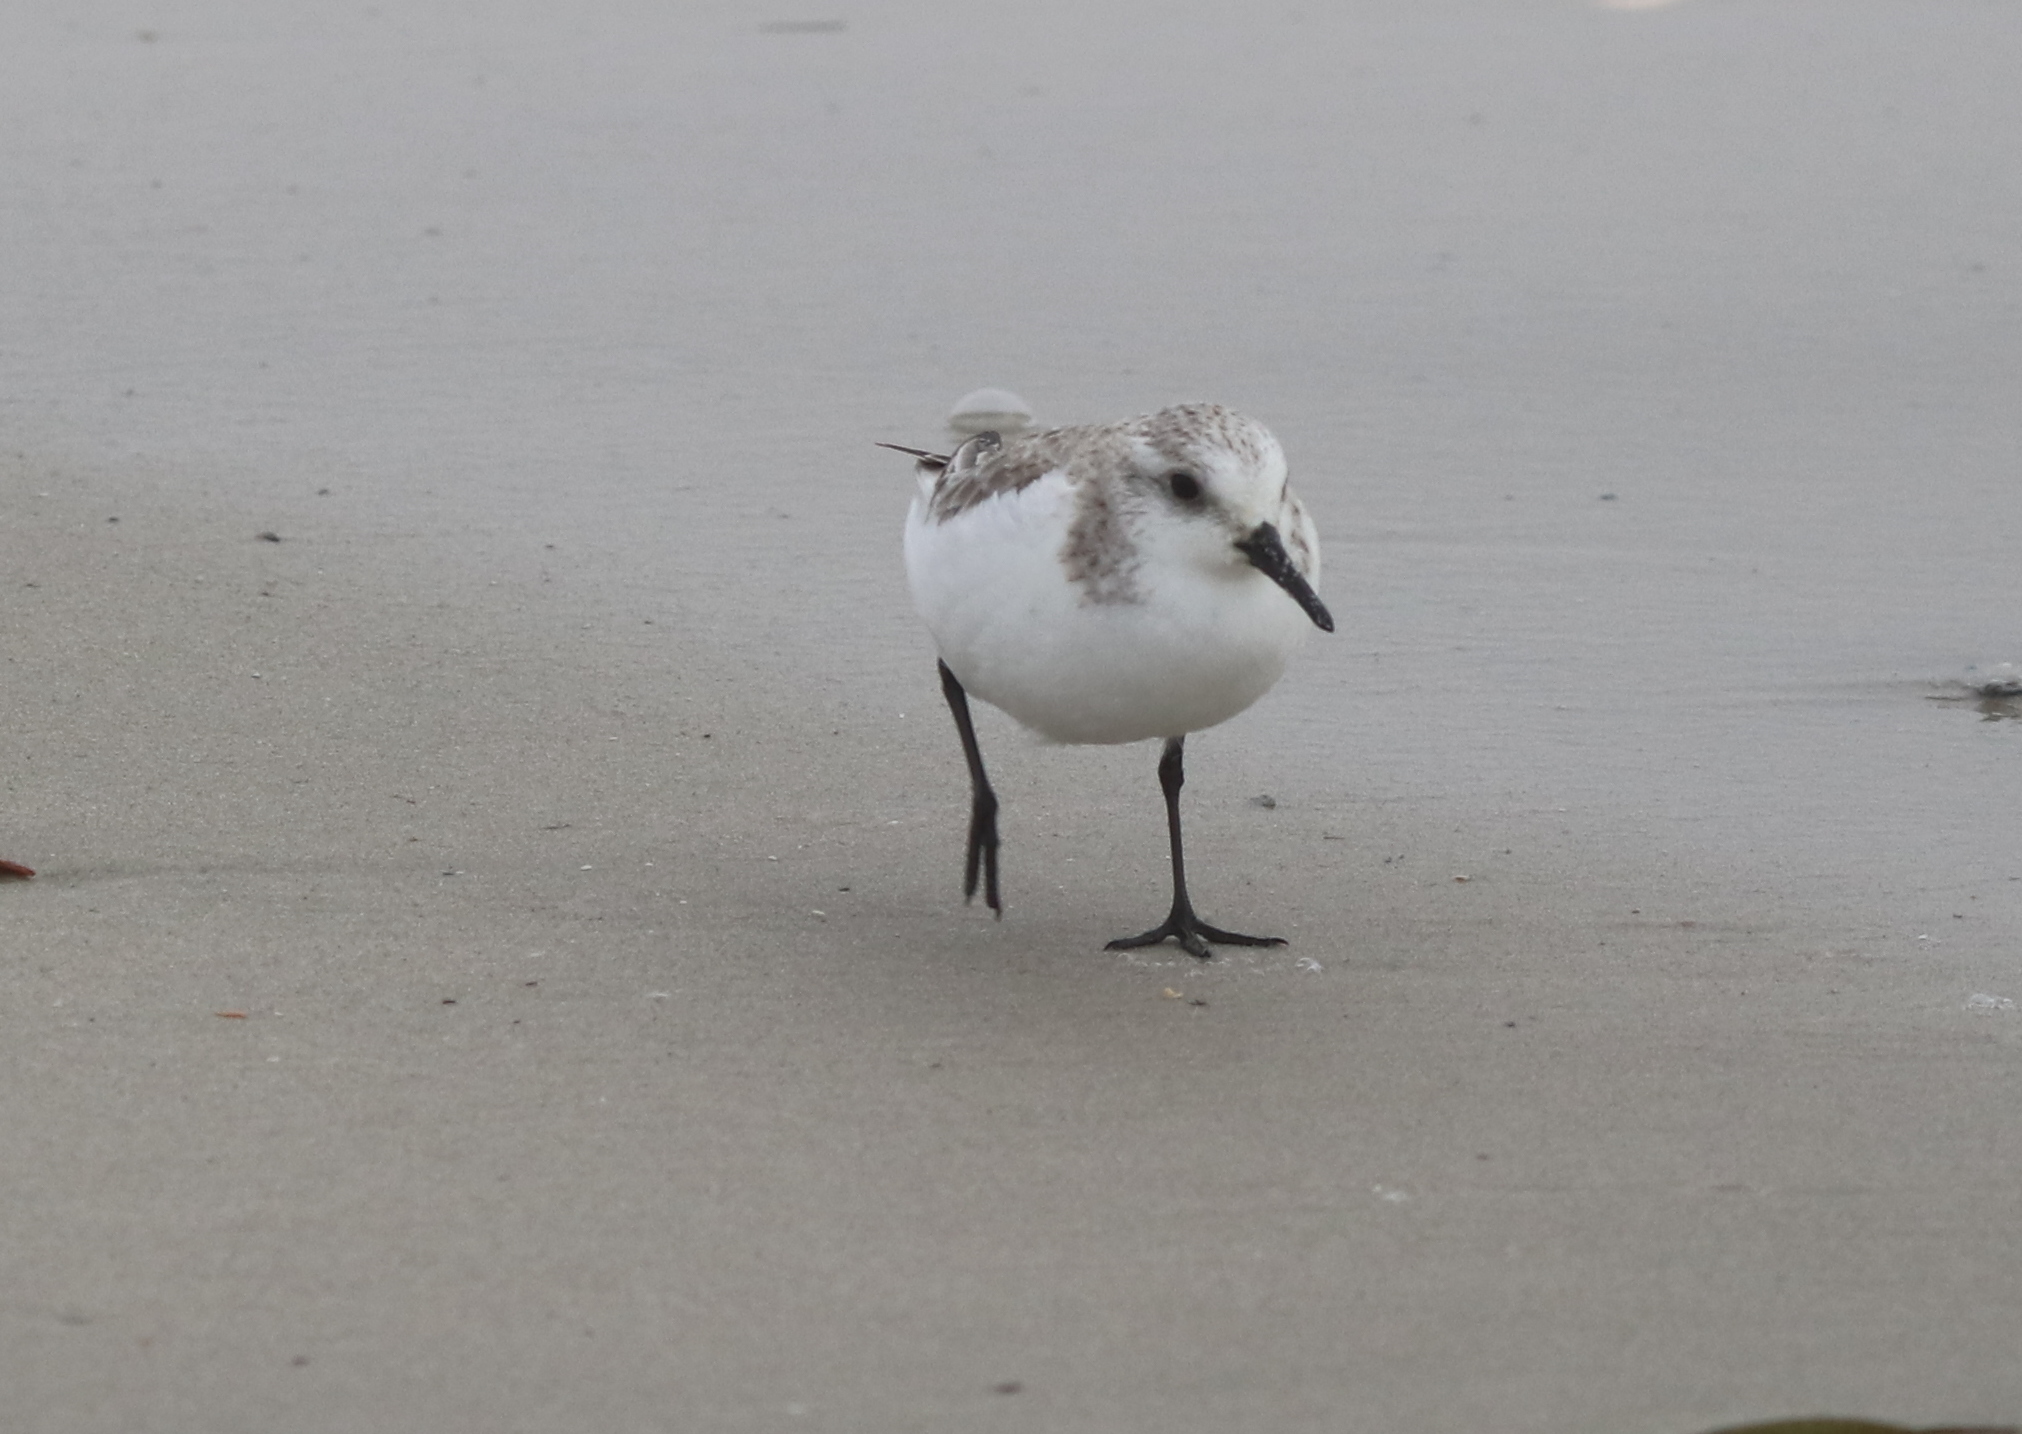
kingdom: Animalia
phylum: Chordata
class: Aves
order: Charadriiformes
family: Scolopacidae
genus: Calidris
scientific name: Calidris alba
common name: Sanderling
